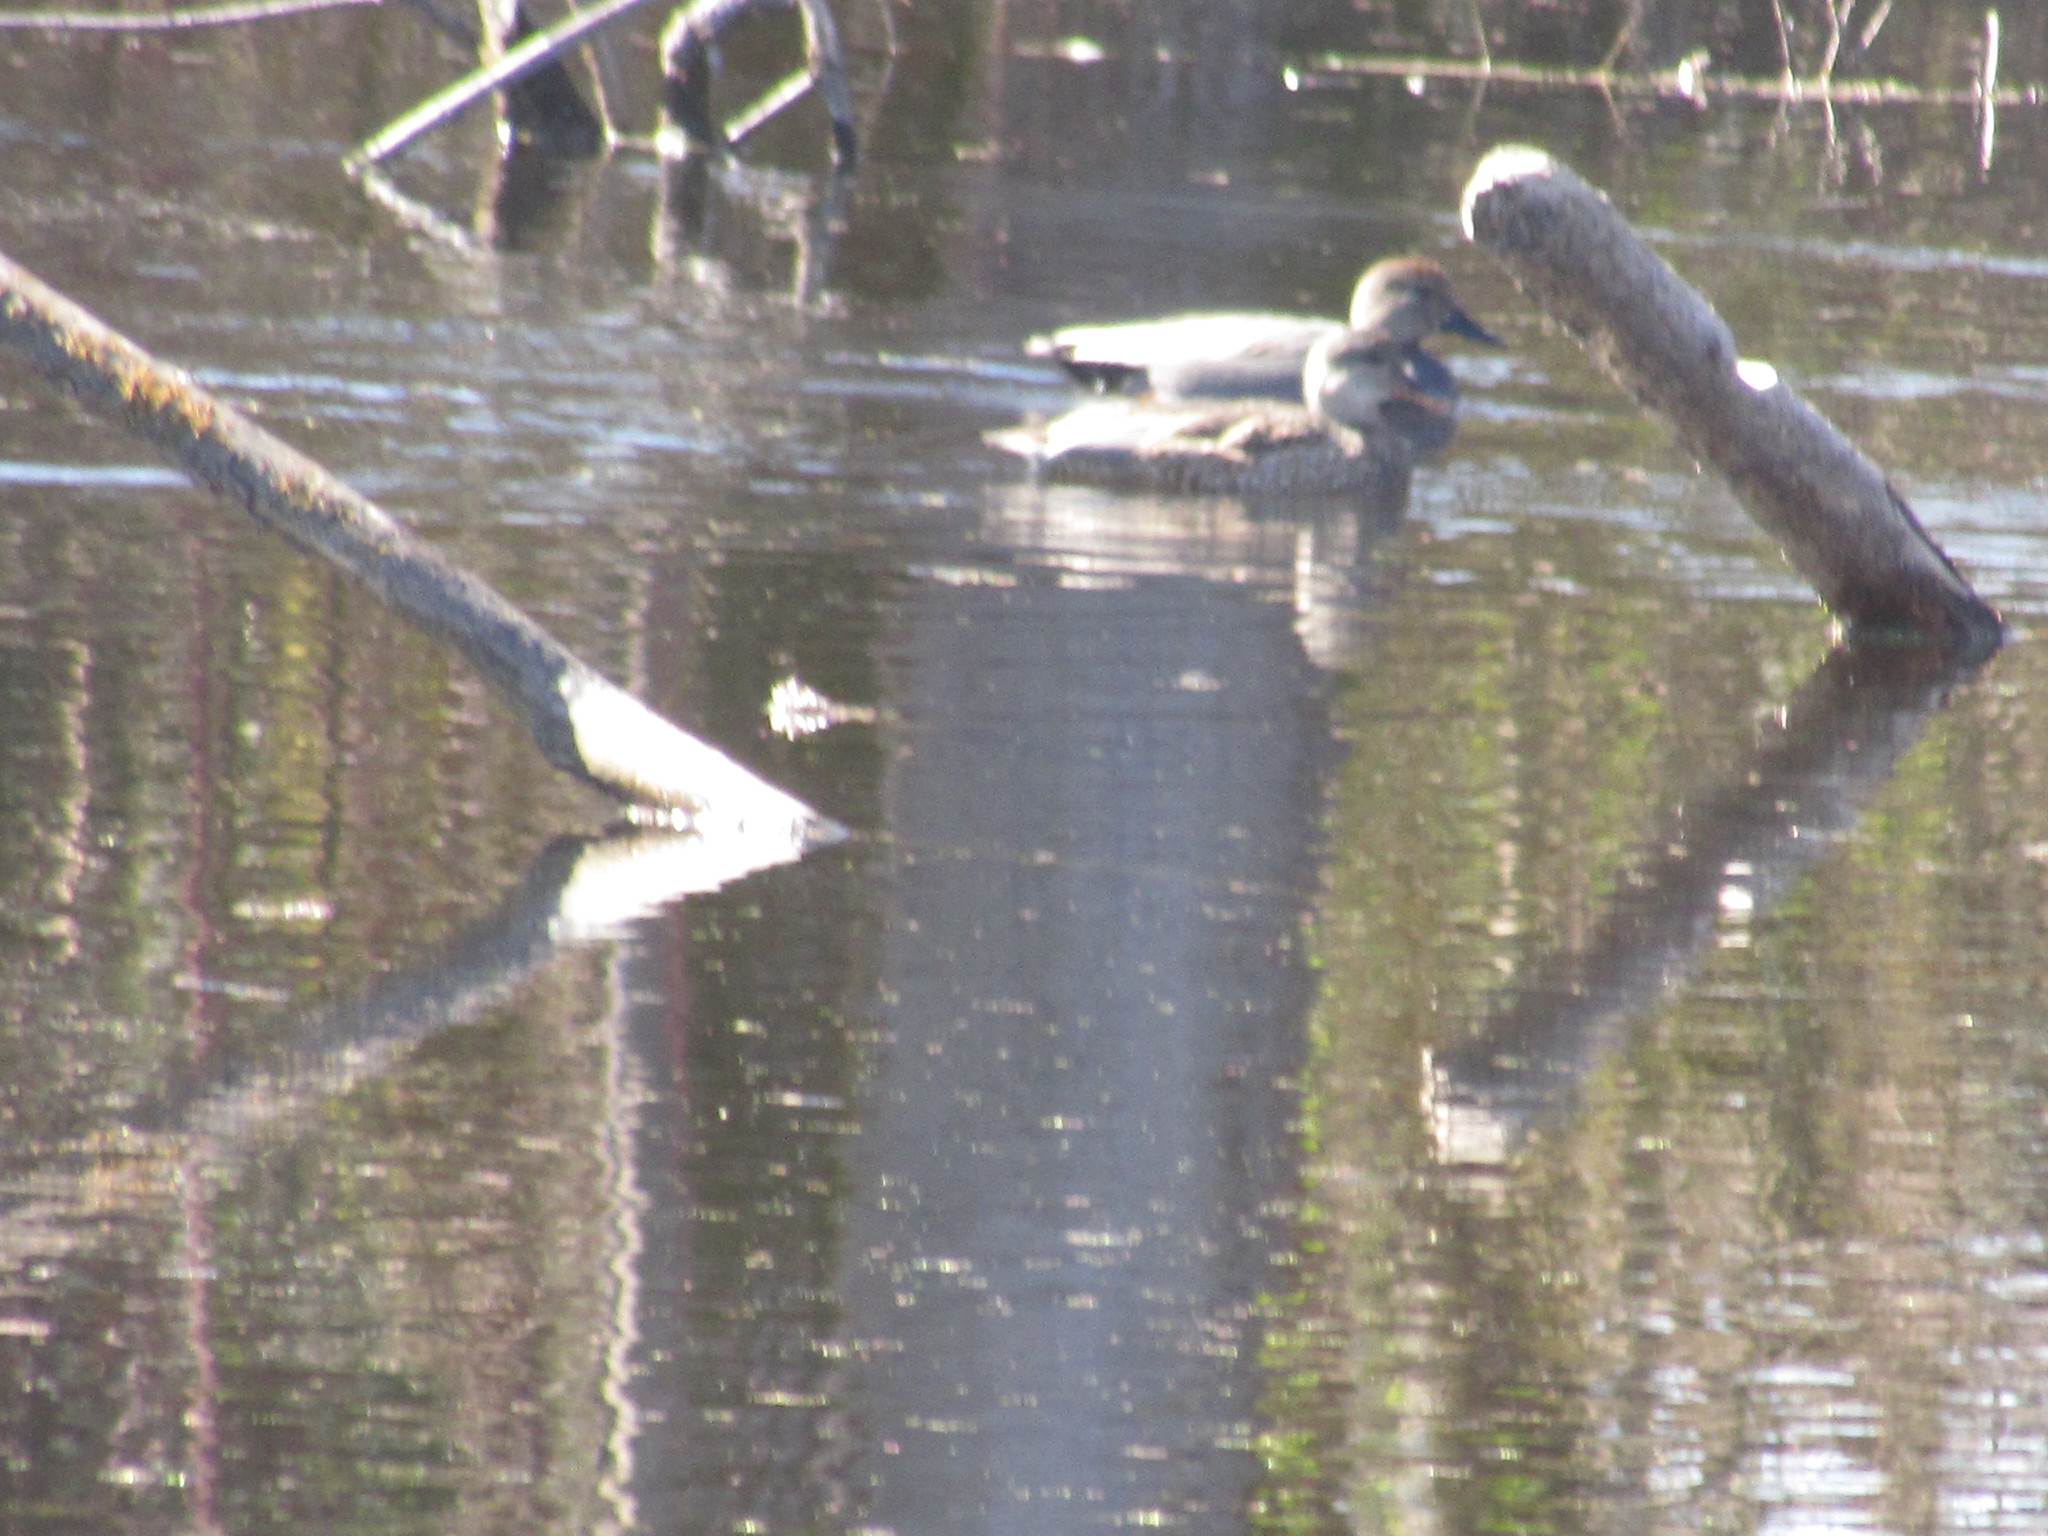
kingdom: Animalia
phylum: Chordata
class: Aves
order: Anseriformes
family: Anatidae
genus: Mareca
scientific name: Mareca strepera
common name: Gadwall
